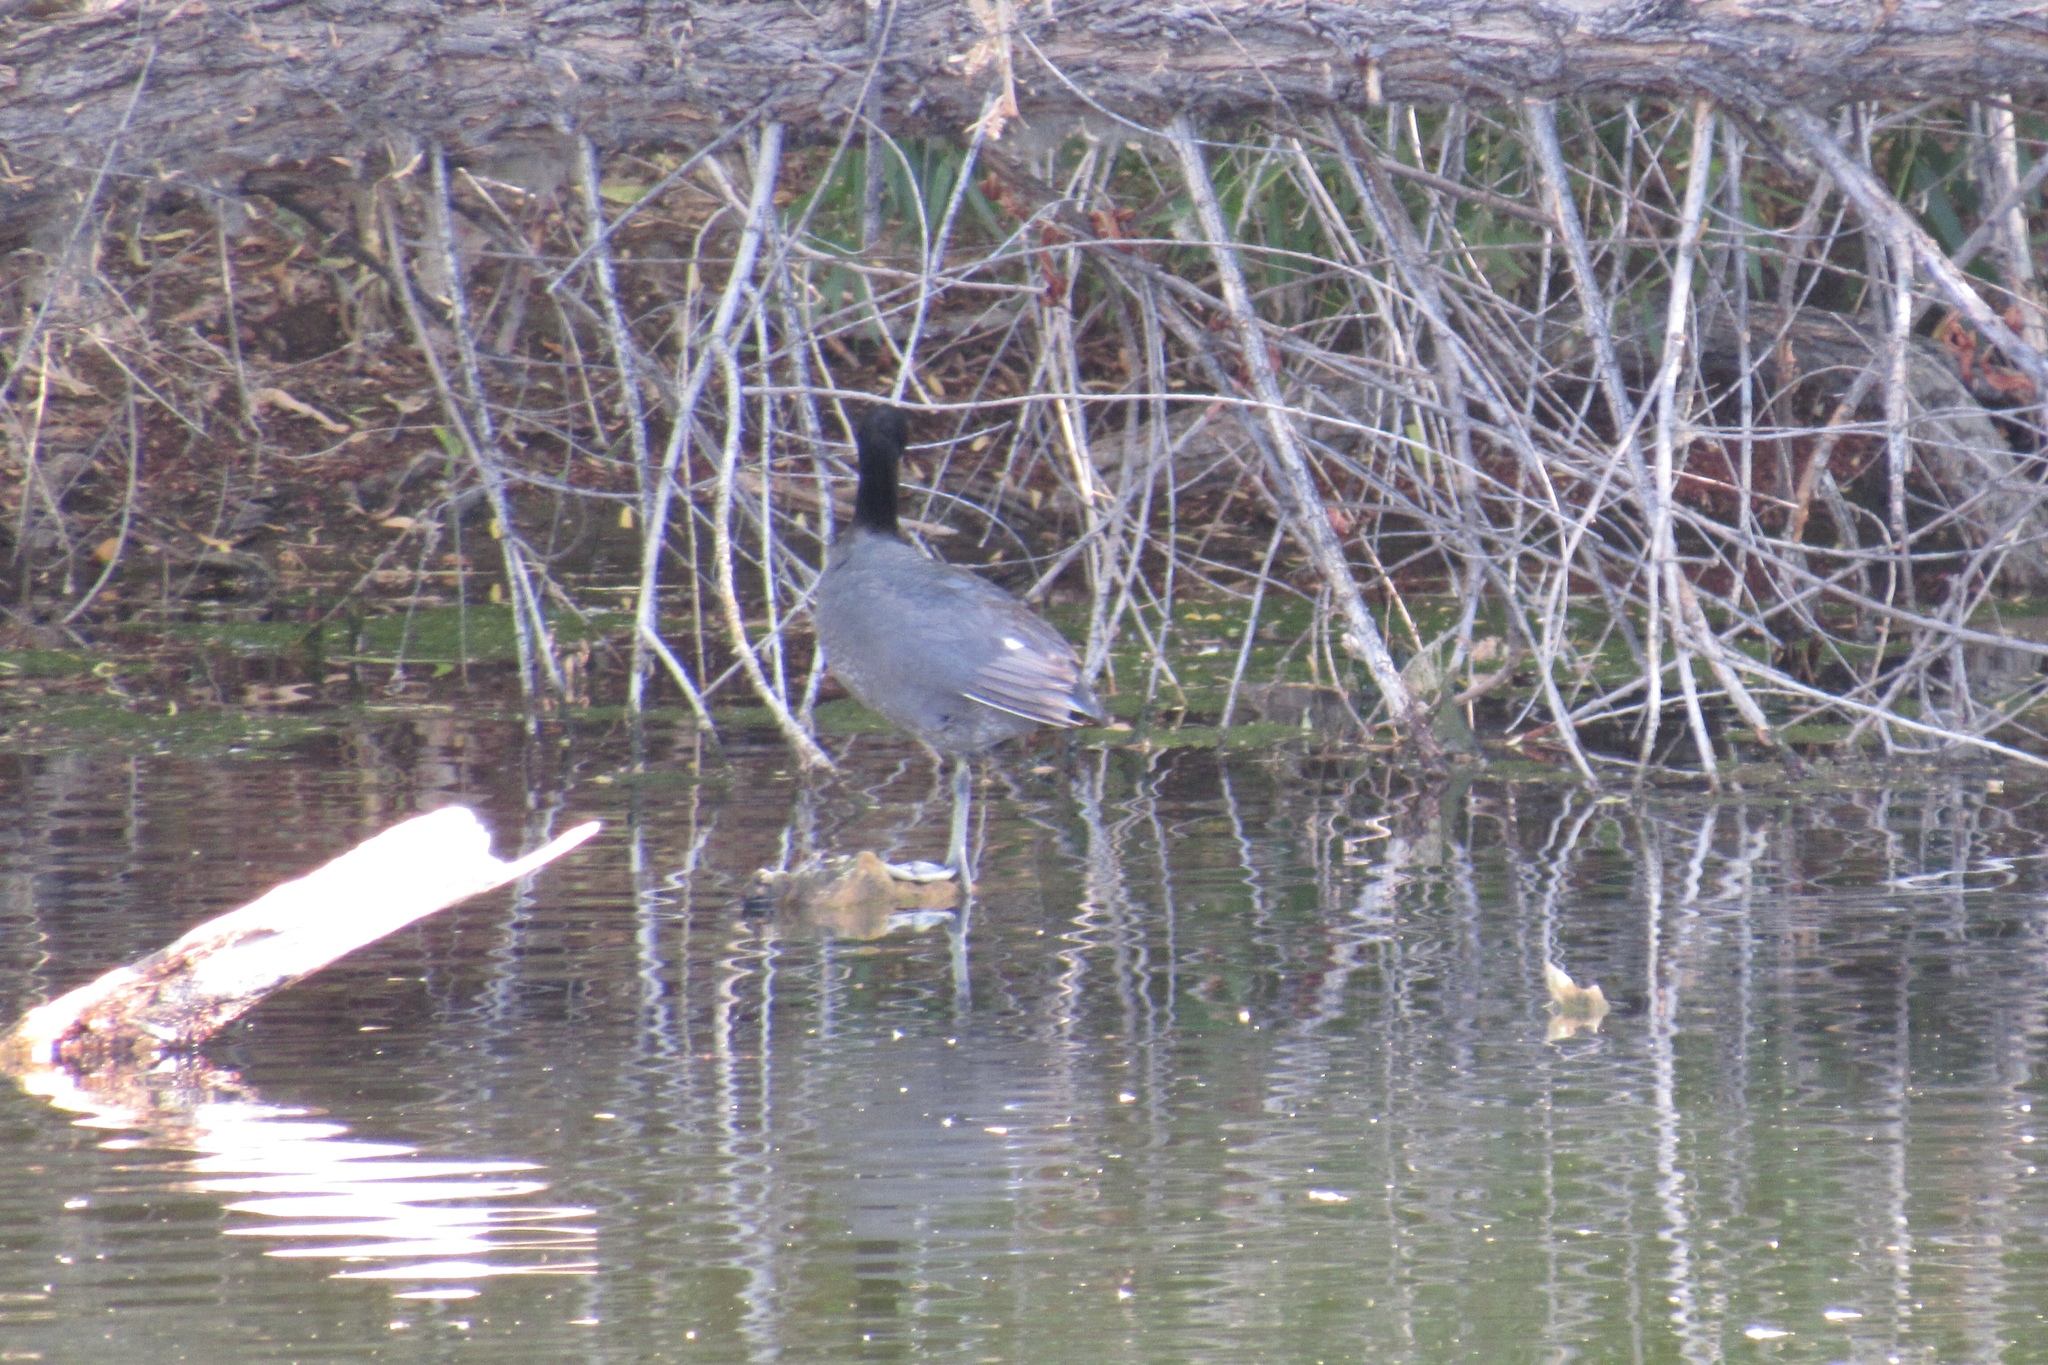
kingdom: Animalia
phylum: Chordata
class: Aves
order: Gruiformes
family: Rallidae
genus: Fulica
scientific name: Fulica americana
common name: American coot
